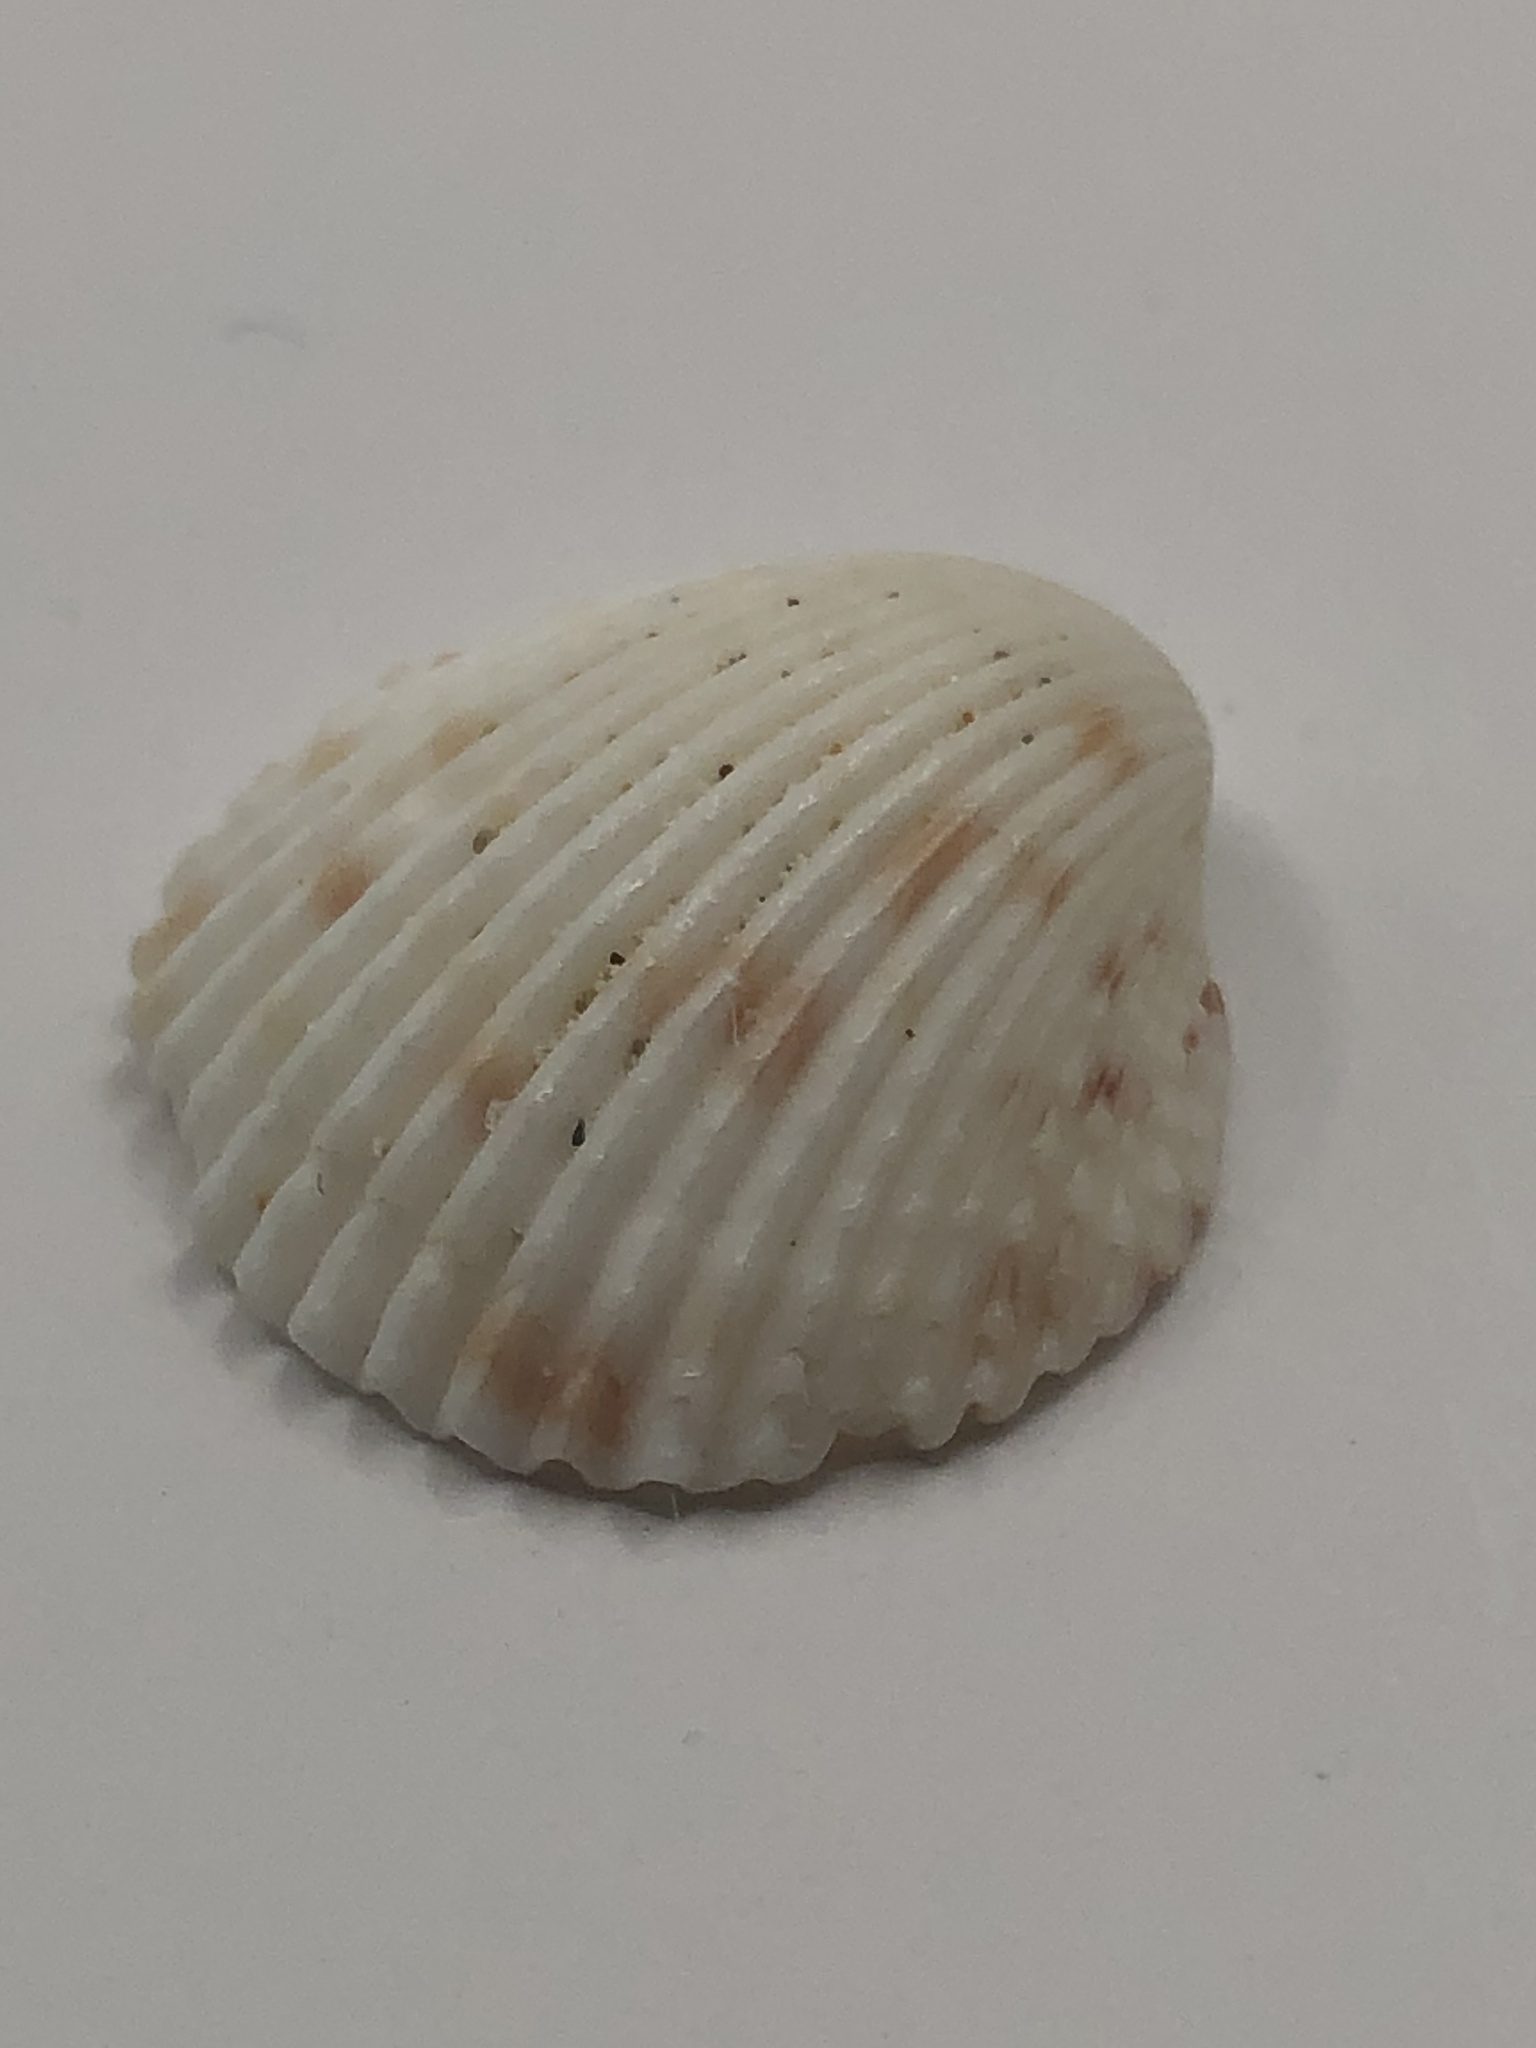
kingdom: Animalia
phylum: Mollusca
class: Bivalvia
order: Cardiida
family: Cardiidae
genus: Trachycardium
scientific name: Trachycardium egmontianum
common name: Florida pricklycockle
